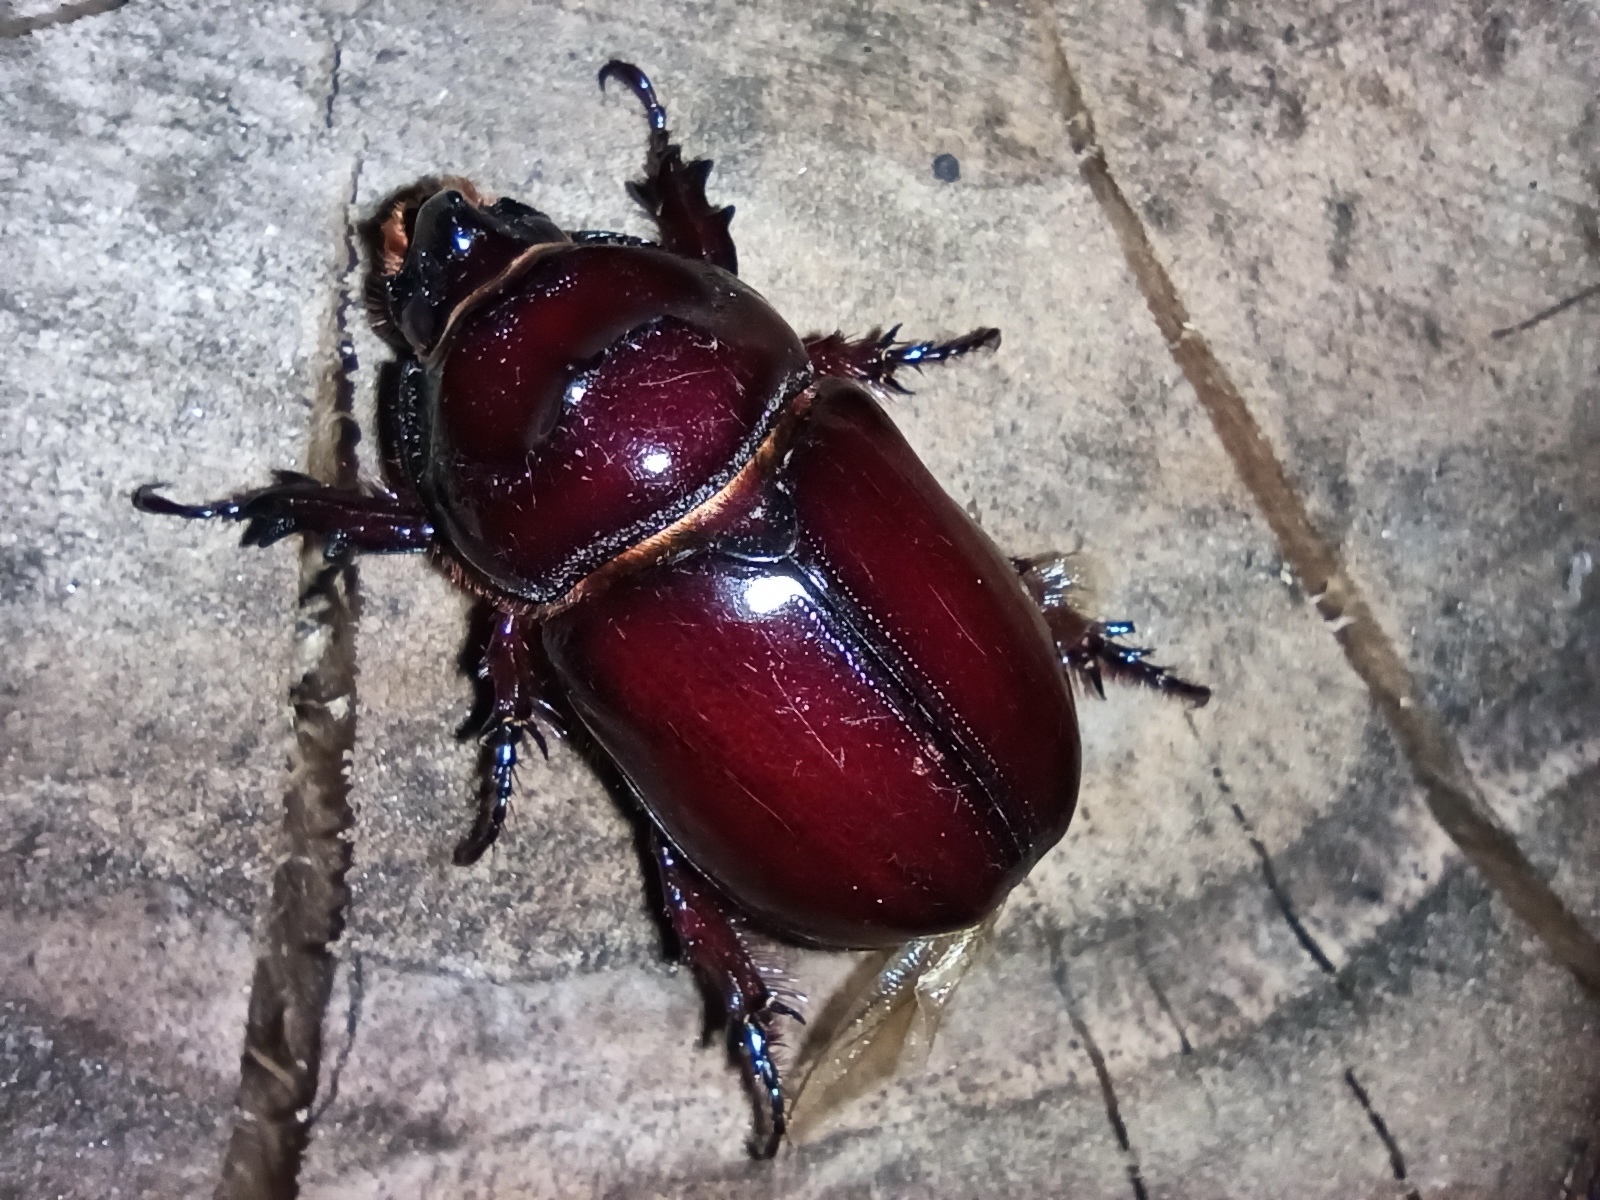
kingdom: Animalia
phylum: Arthropoda
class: Insecta
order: Coleoptera
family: Scarabaeidae
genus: Oryctes
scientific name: Oryctes nasicornis
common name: European rhinoceros beetle
